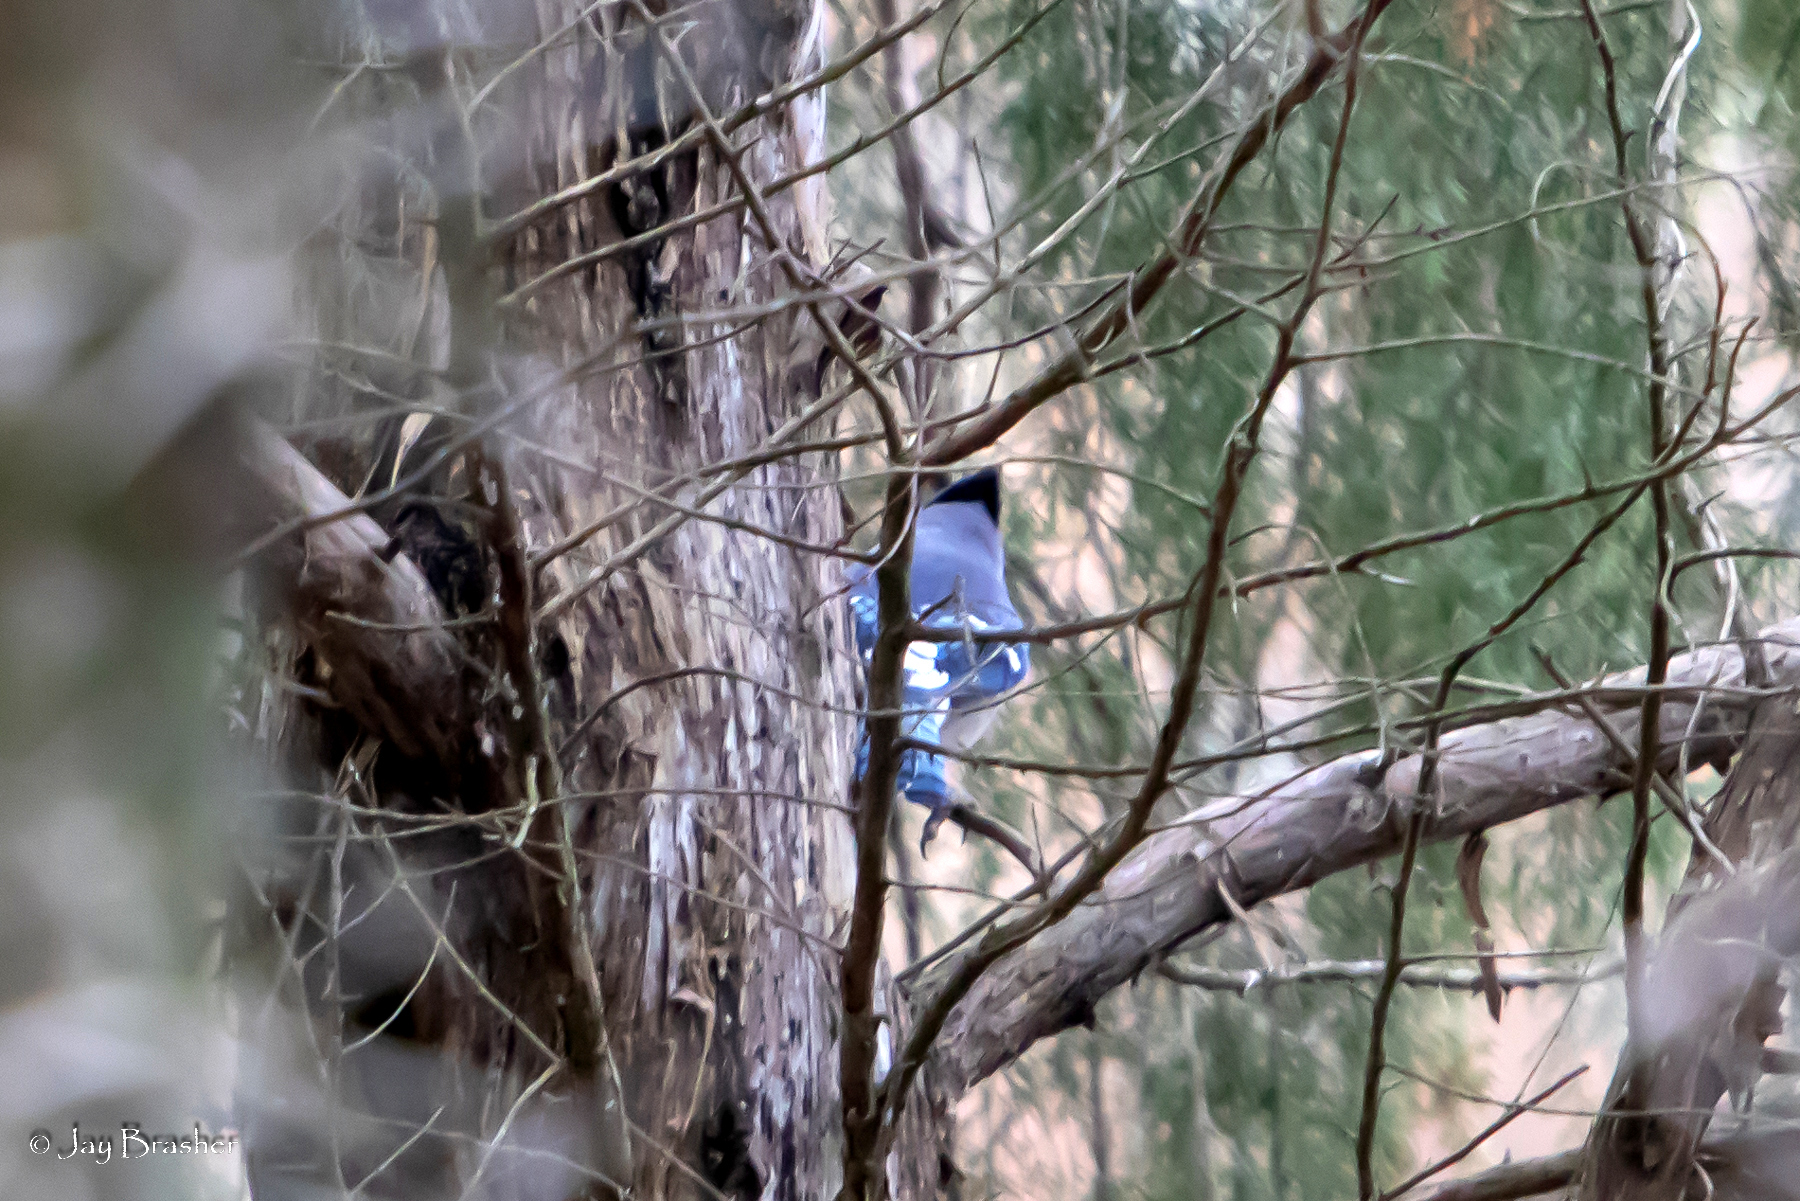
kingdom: Animalia
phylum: Chordata
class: Aves
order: Passeriformes
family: Corvidae
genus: Cyanocitta
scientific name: Cyanocitta cristata
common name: Blue jay
